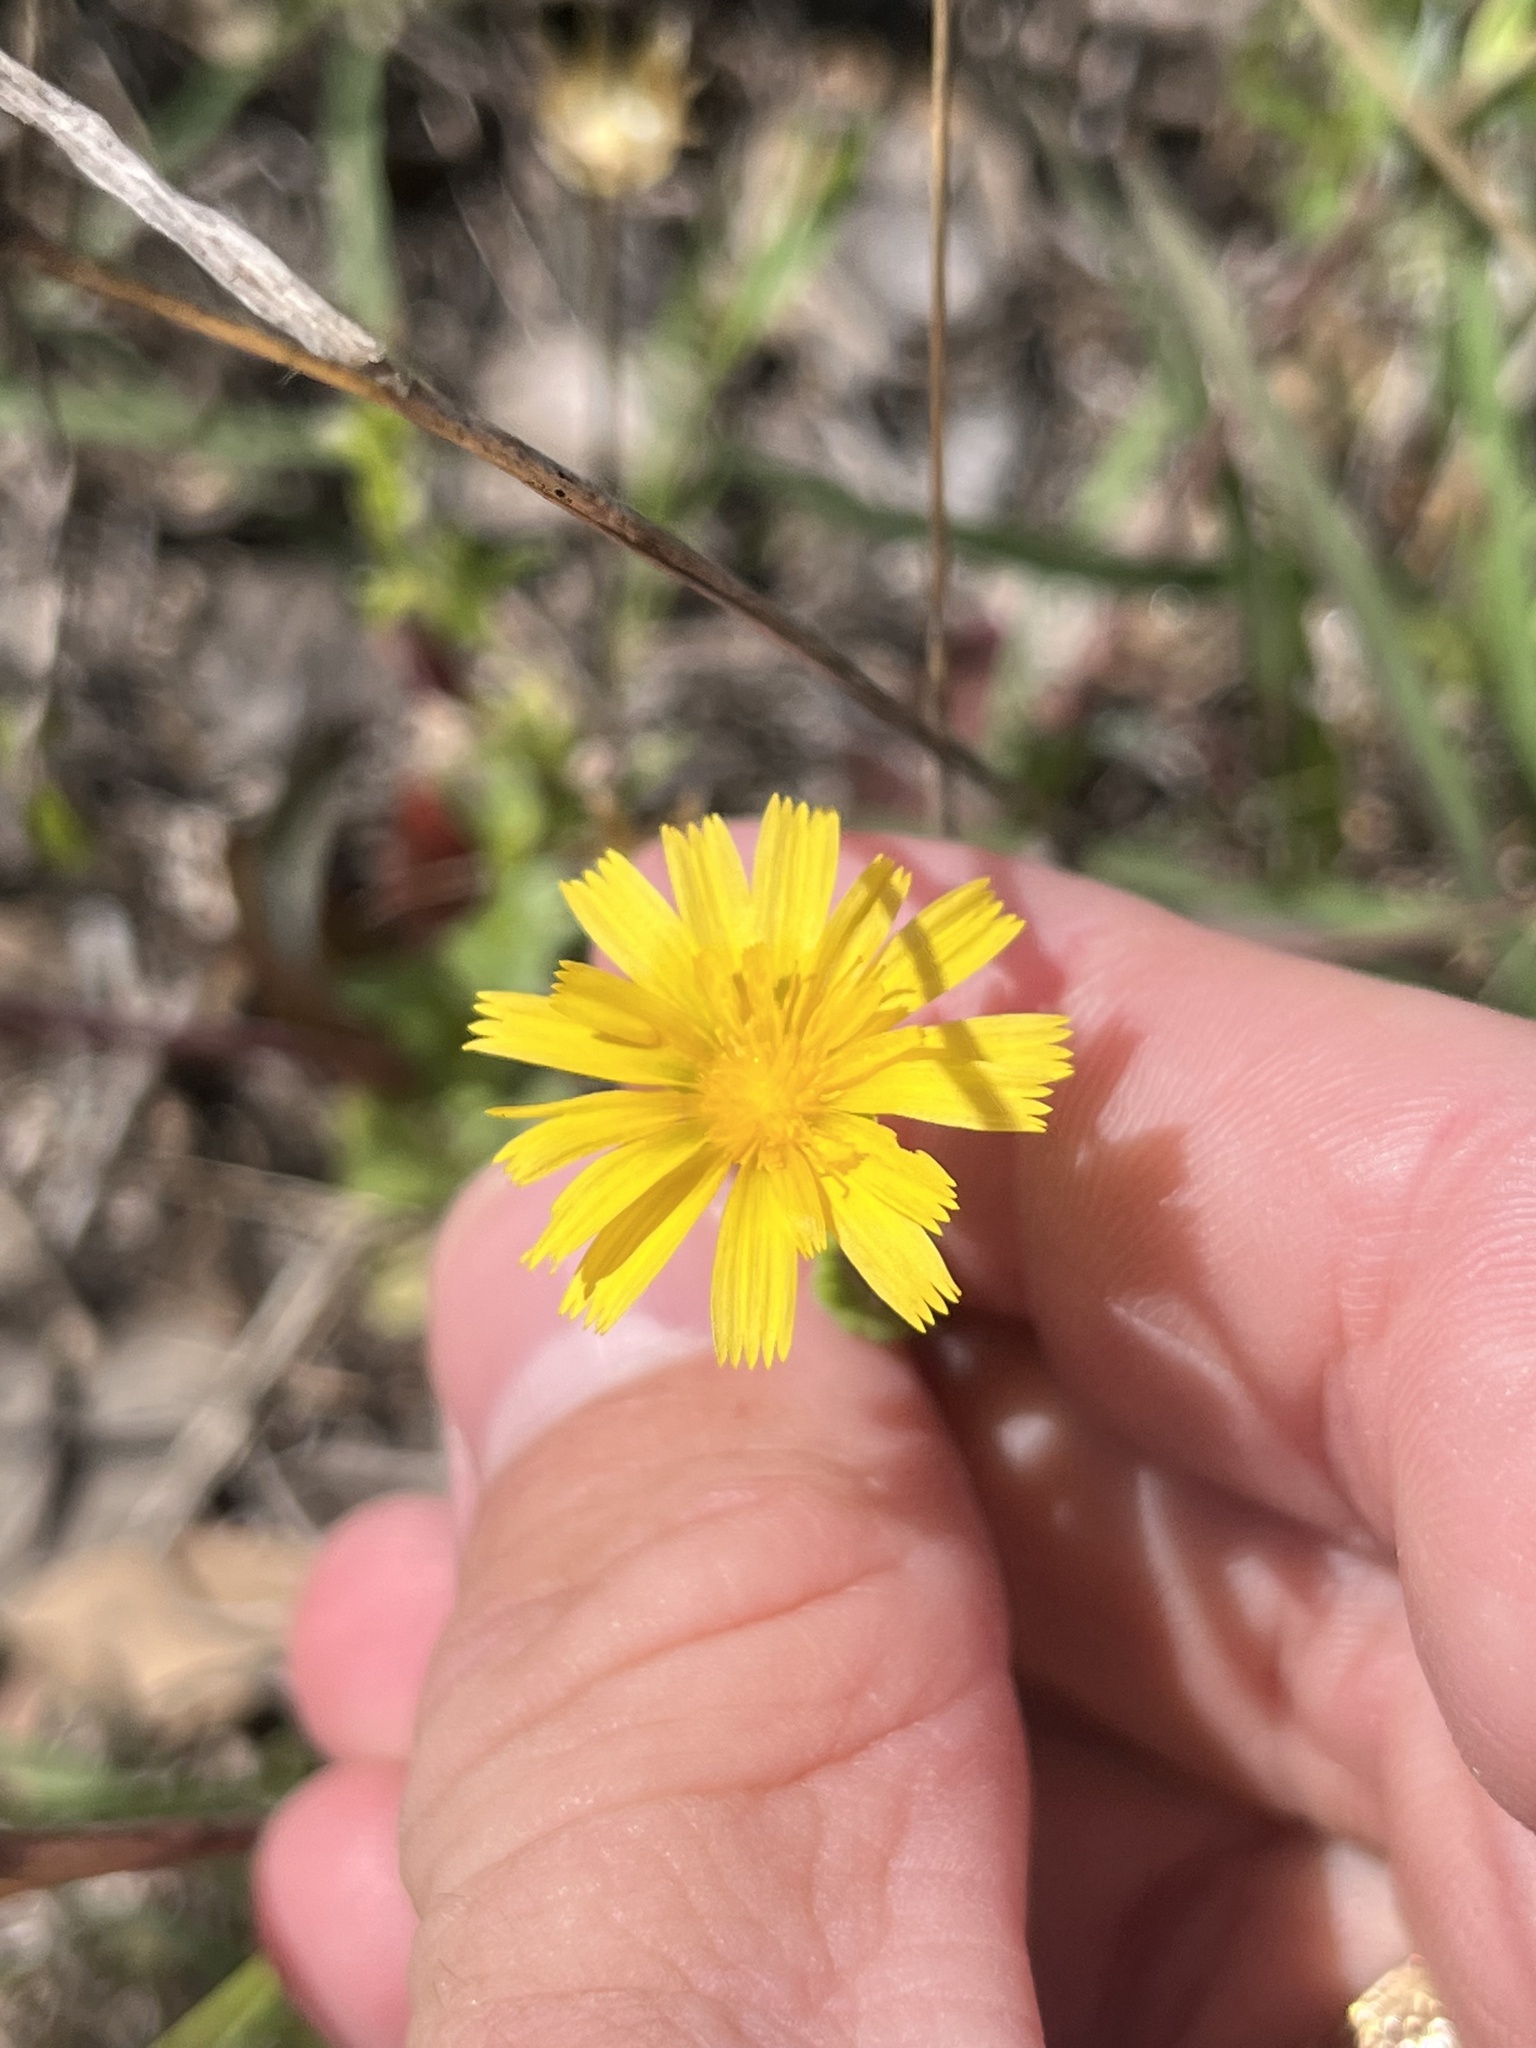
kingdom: Plantae
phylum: Tracheophyta
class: Magnoliopsida
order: Asterales
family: Asteraceae
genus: Krigia
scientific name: Krigia cespitosa
